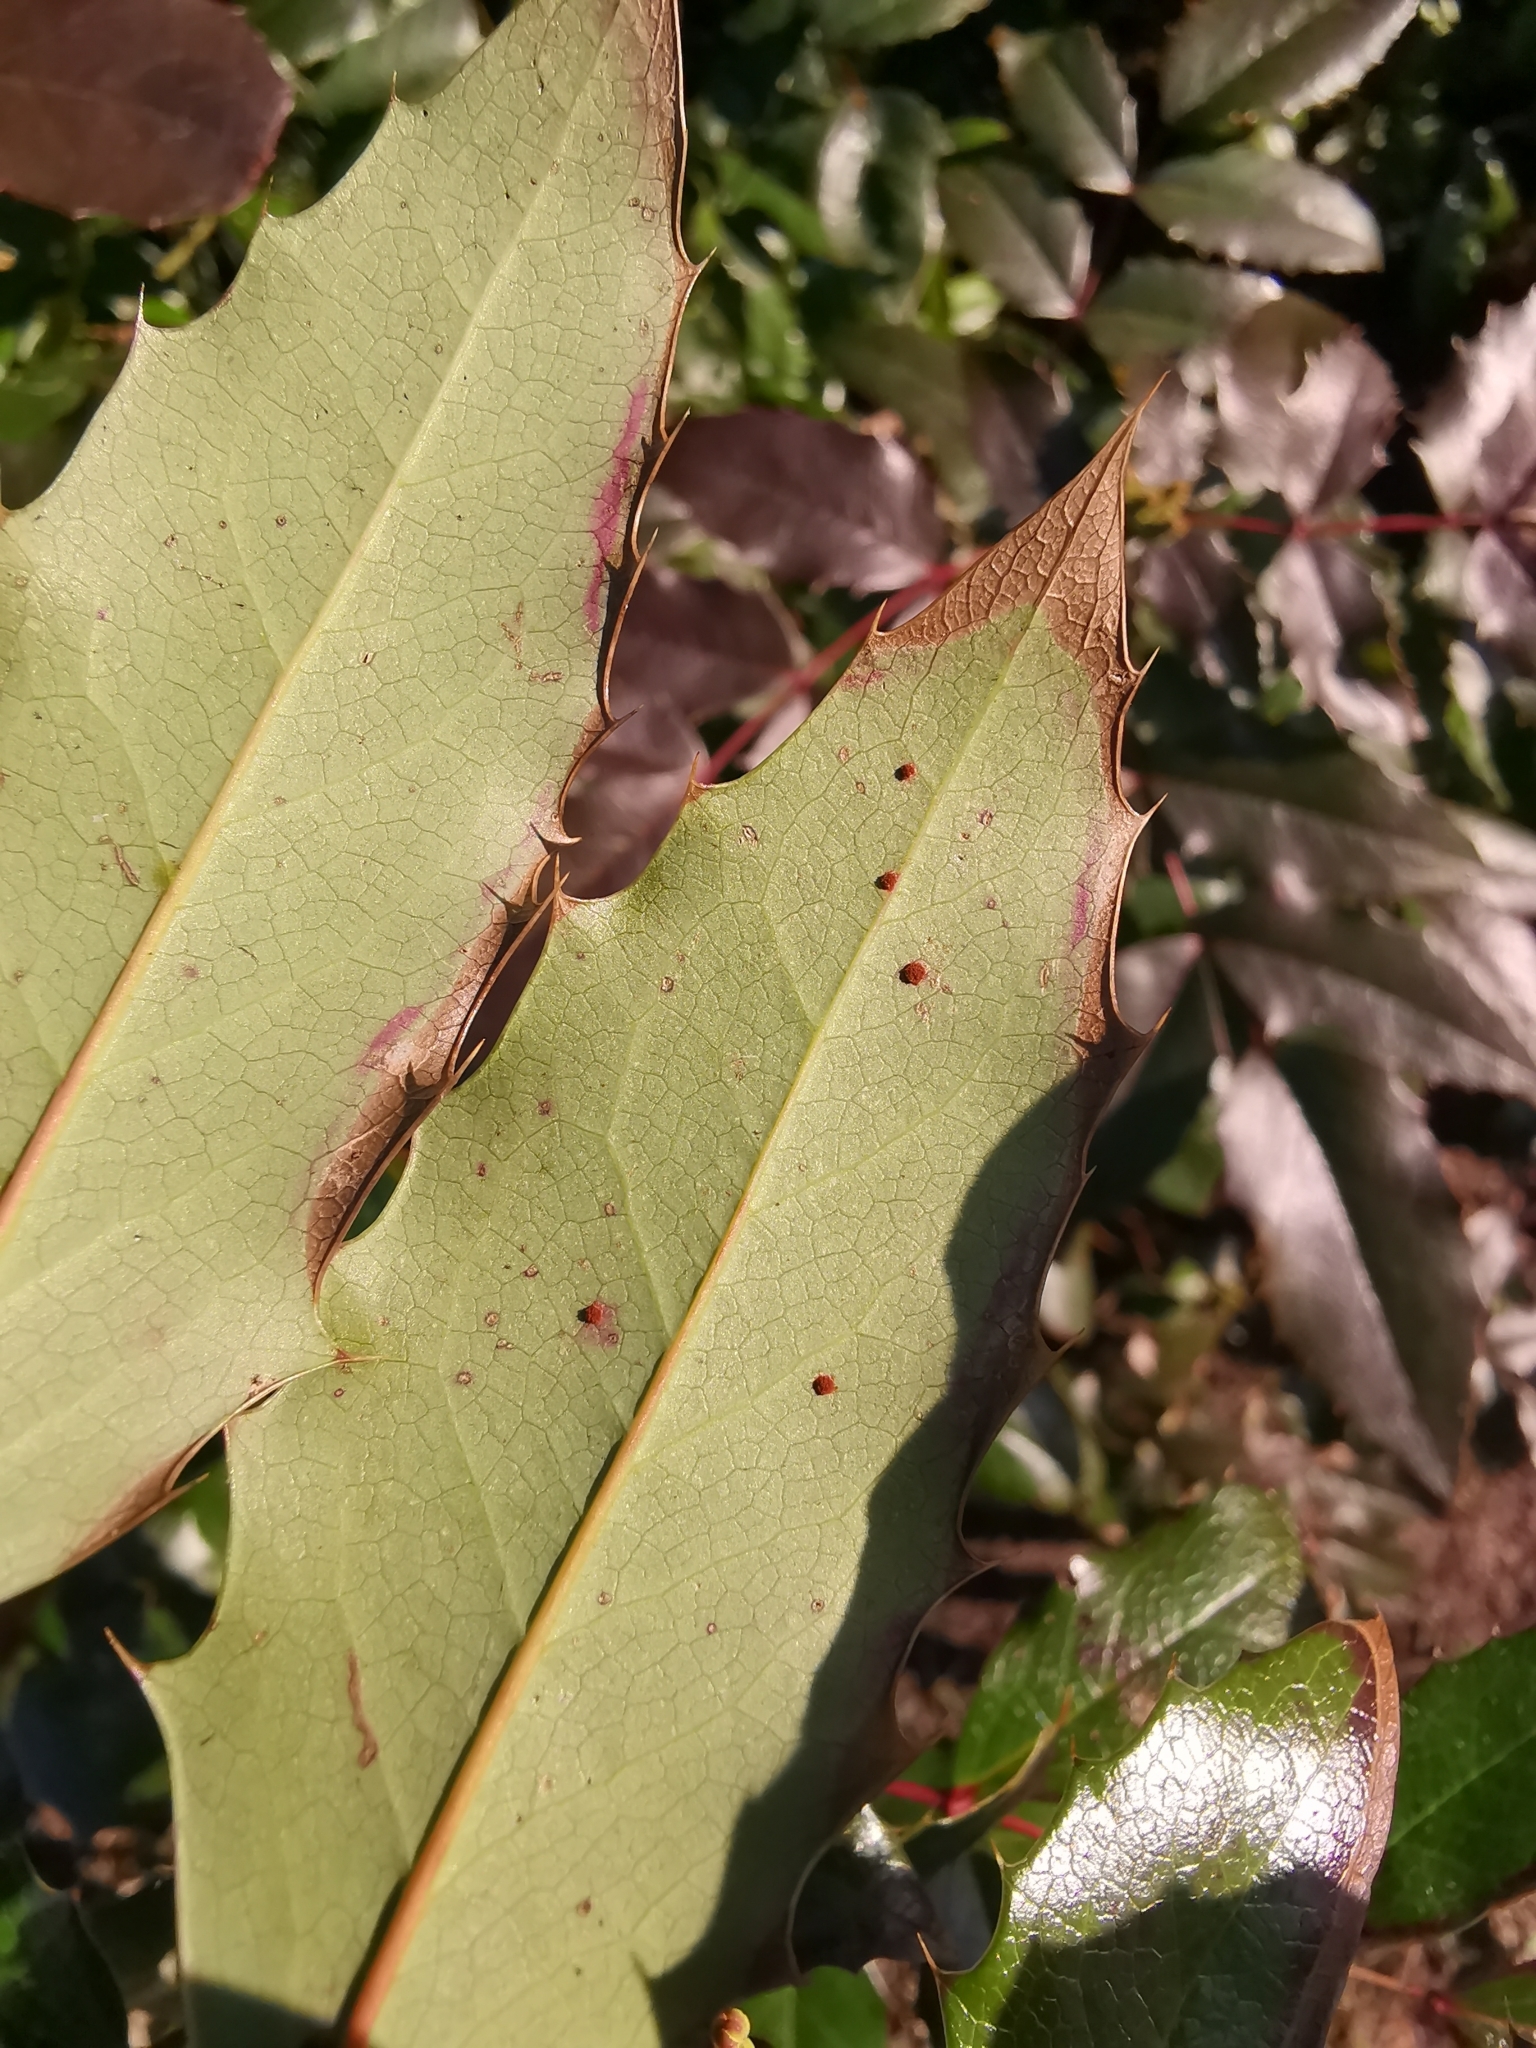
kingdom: Fungi
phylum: Basidiomycota
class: Pucciniomycetes
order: Pucciniales
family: Pucciniaceae
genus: Cumminsiella
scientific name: Cumminsiella mirabilissima
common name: Mahonia rust
